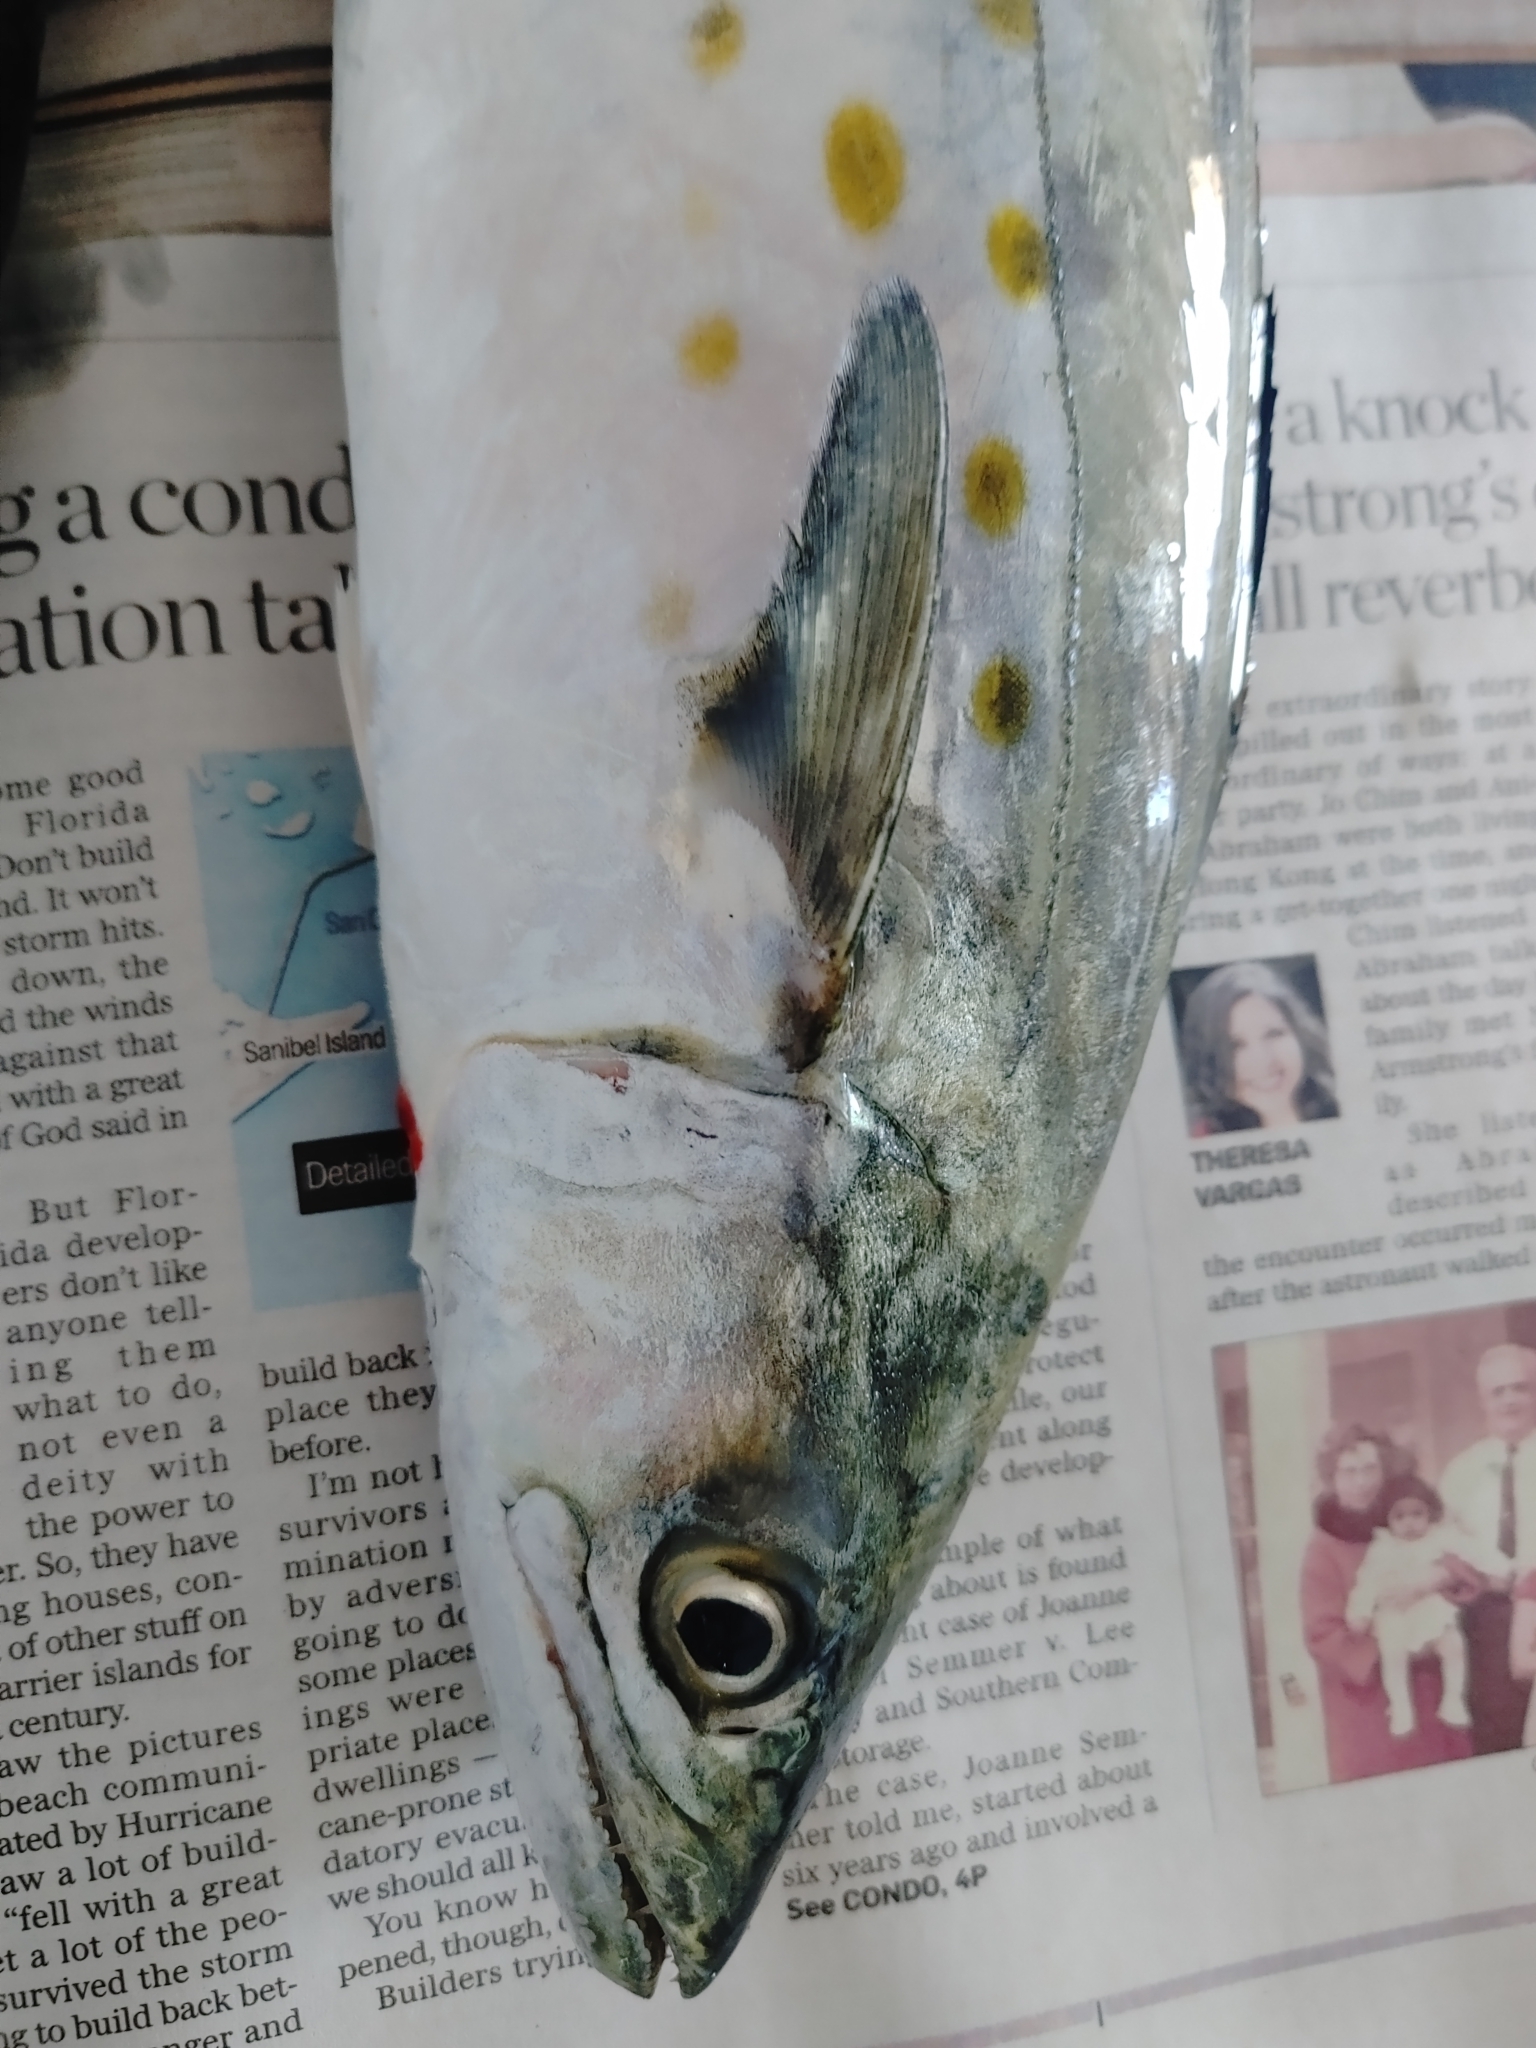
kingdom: Animalia
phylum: Chordata
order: Perciformes
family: Scombridae
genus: Scomberomorus
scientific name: Scomberomorus maculatus
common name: Spanish mackerel
